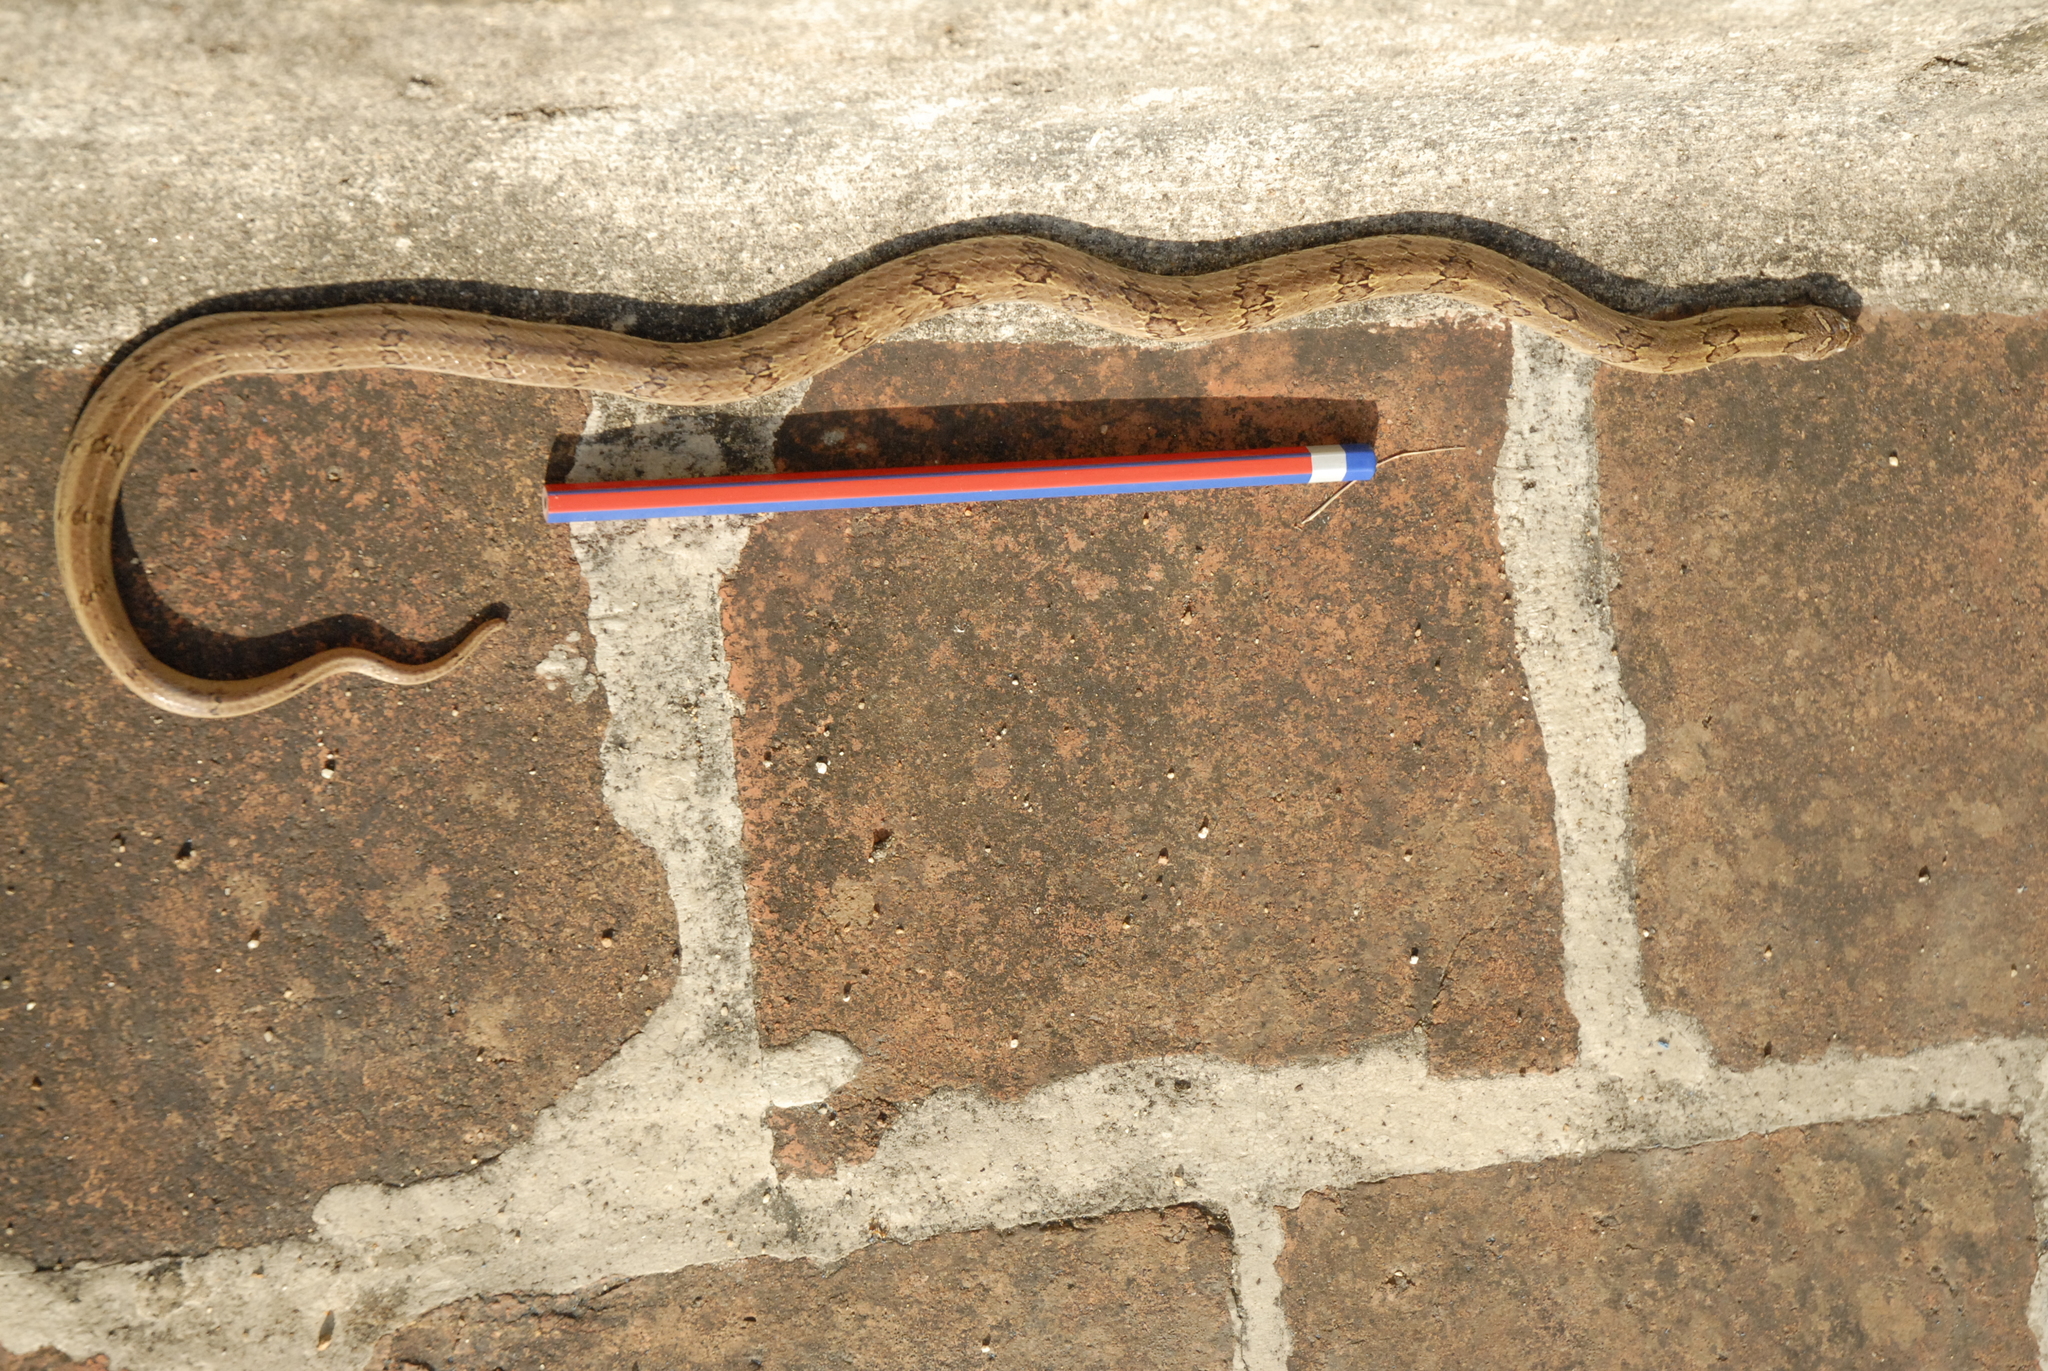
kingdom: Animalia
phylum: Chordata
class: Squamata
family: Colubridae
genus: Oligodon
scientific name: Oligodon taeniolatus
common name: Loos snake
